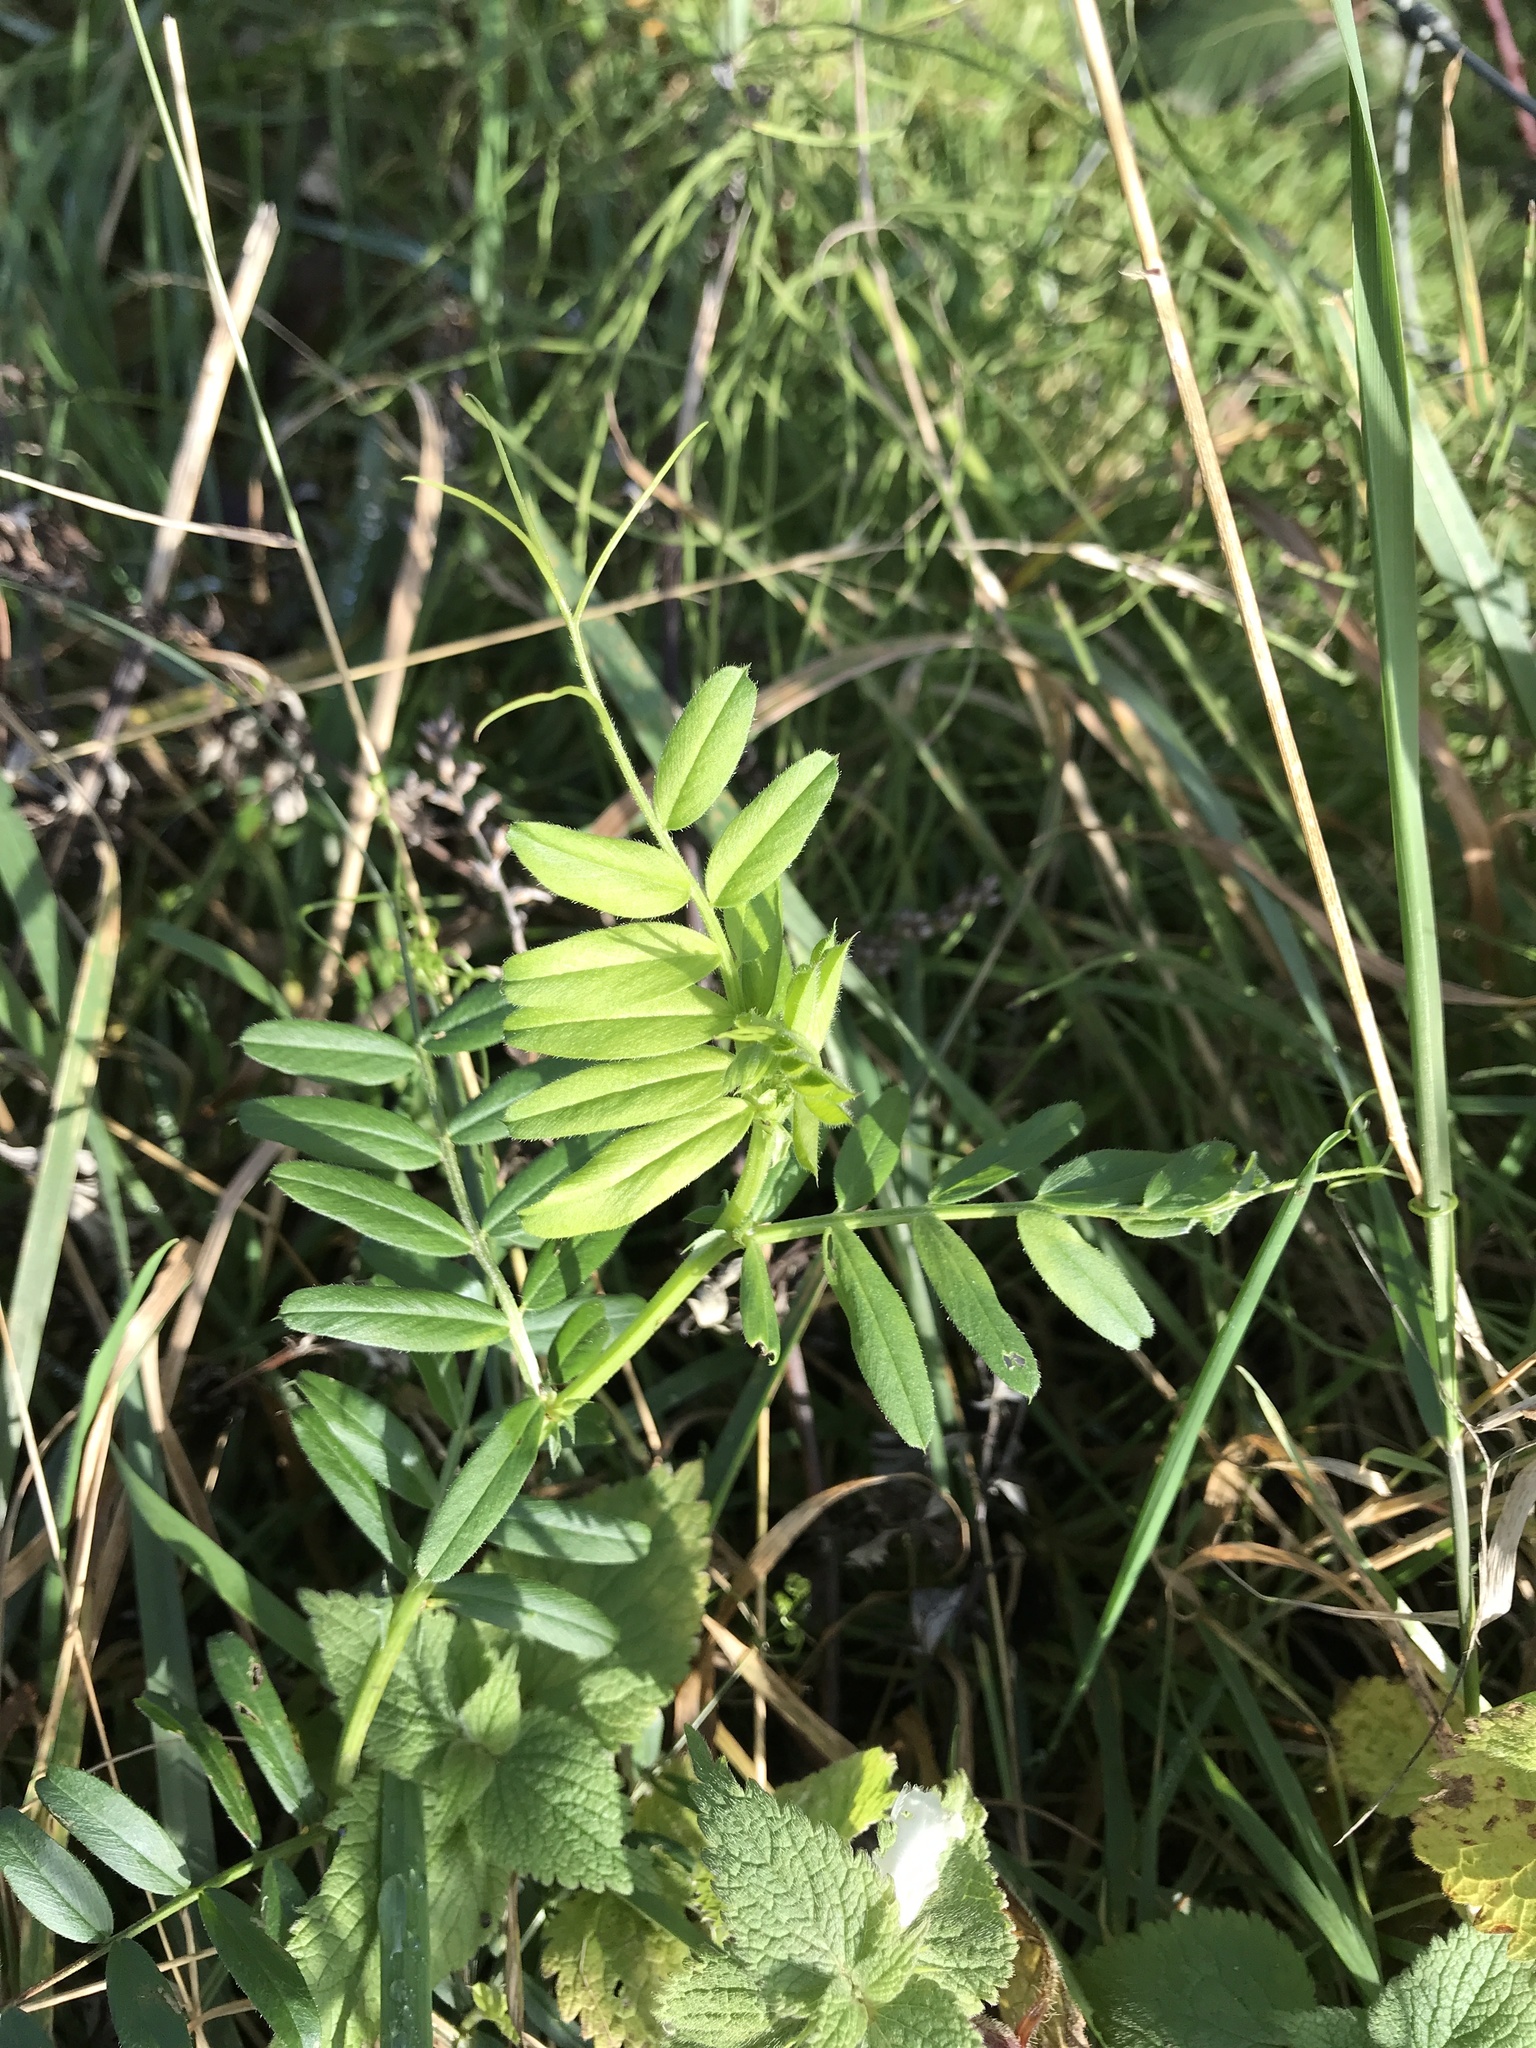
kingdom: Plantae
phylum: Tracheophyta
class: Magnoliopsida
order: Fabales
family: Fabaceae
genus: Vicia
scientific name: Vicia sativa
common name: Garden vetch
